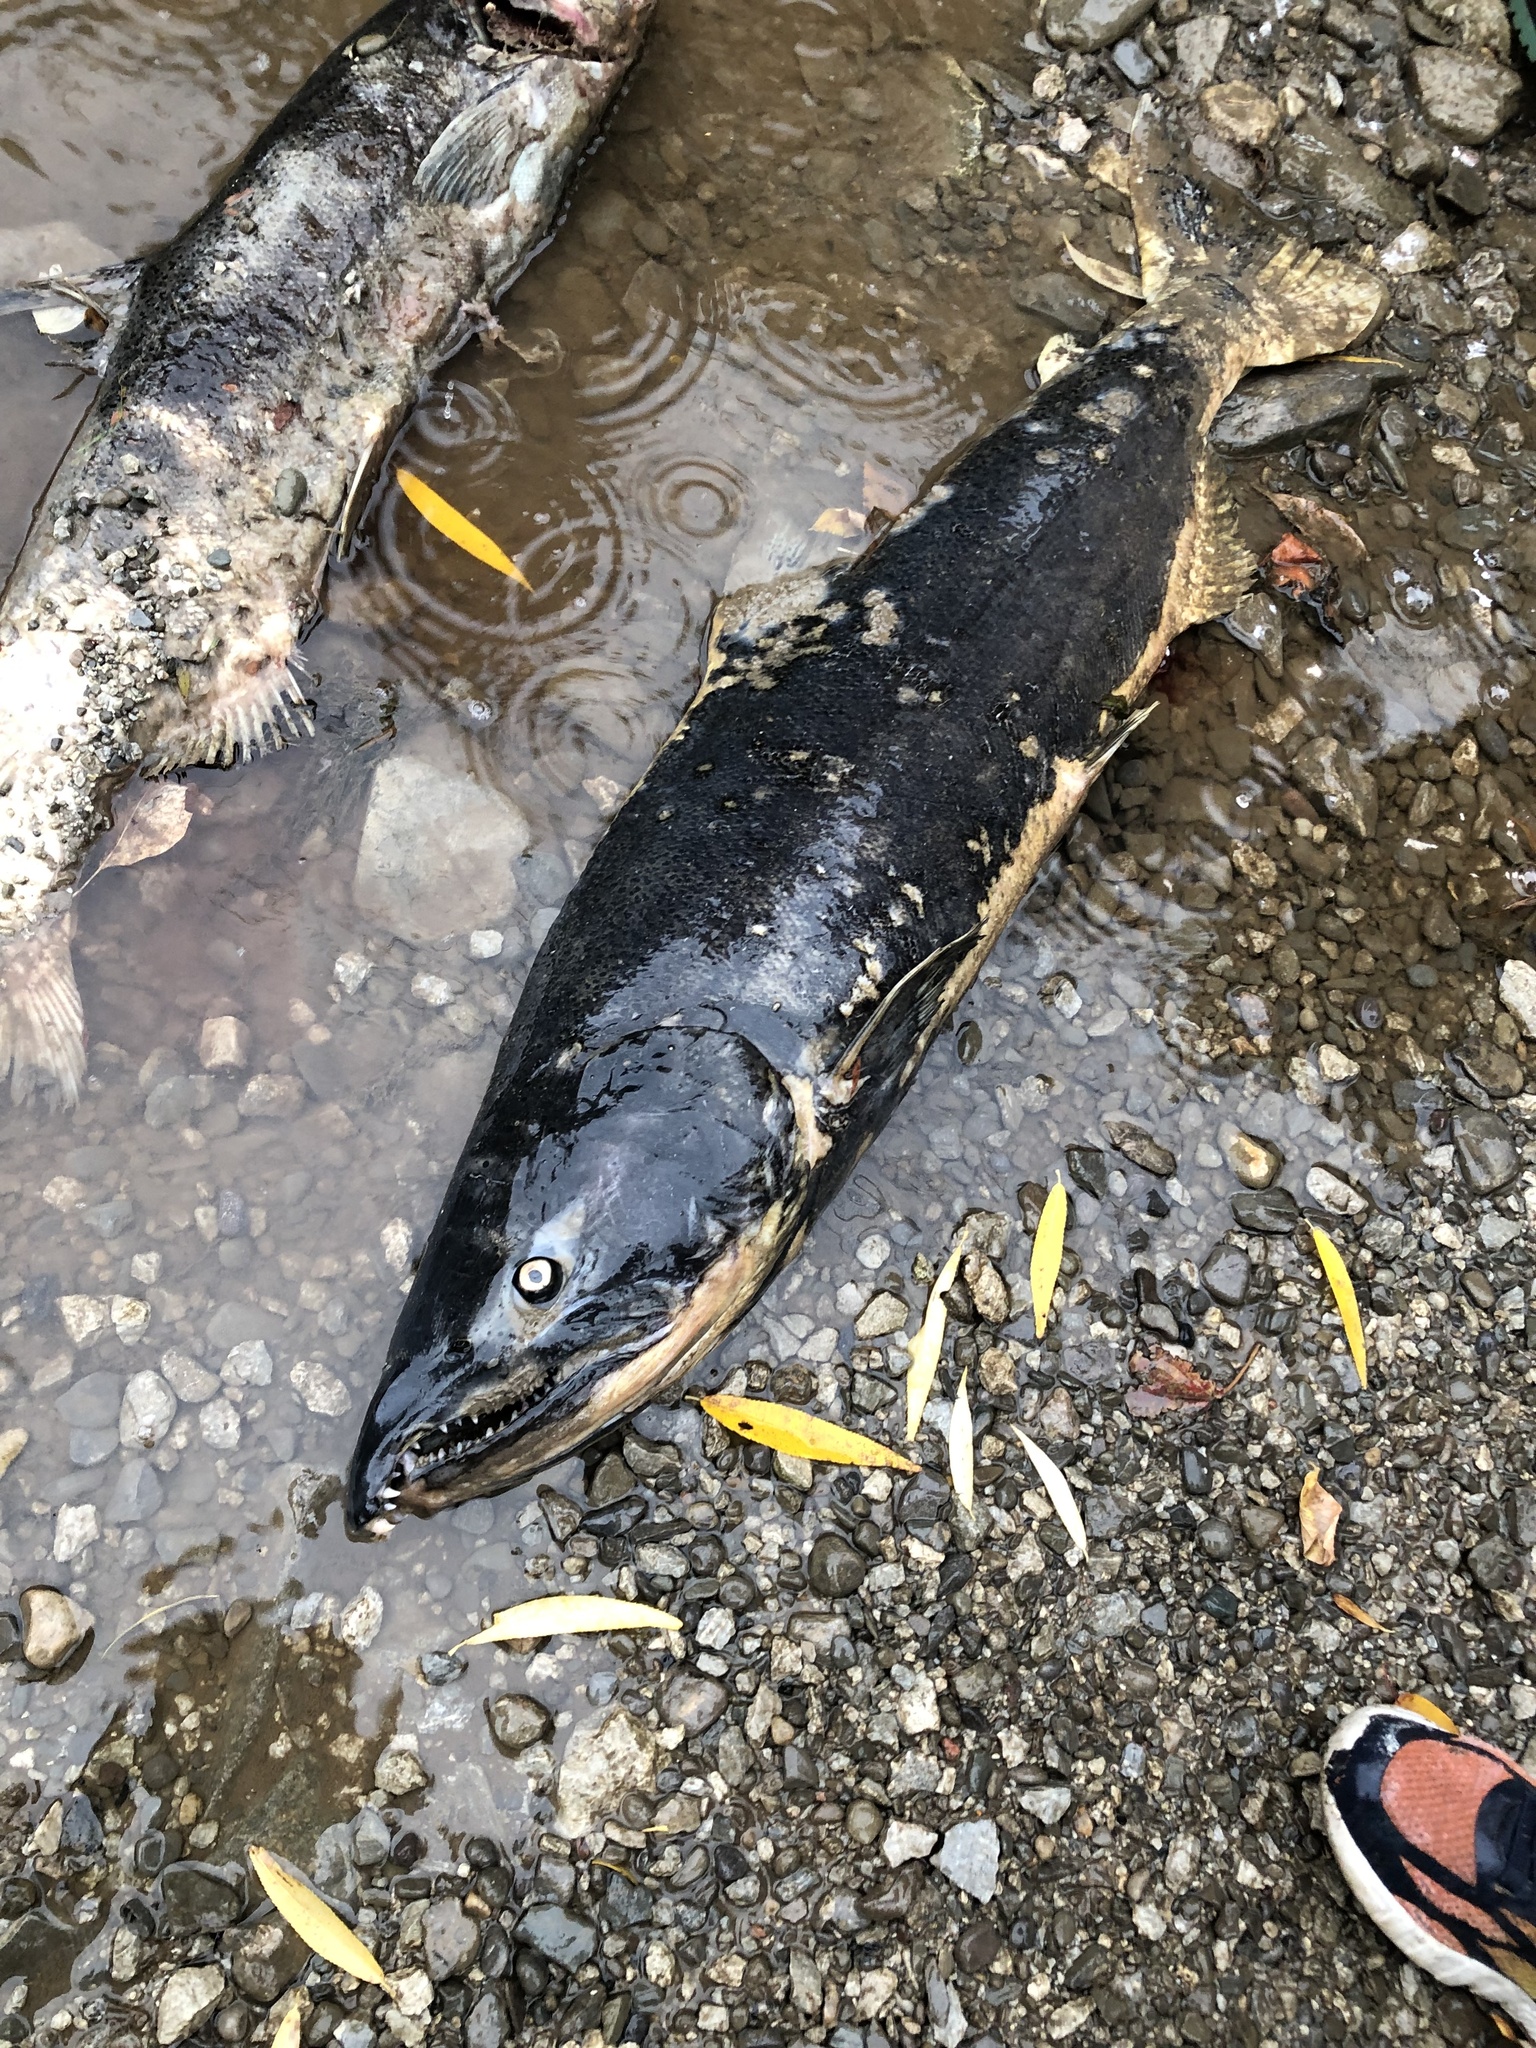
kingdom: Animalia
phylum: Chordata
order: Salmoniformes
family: Salmonidae
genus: Oncorhynchus
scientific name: Oncorhynchus tshawytscha
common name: Chinook salmon
